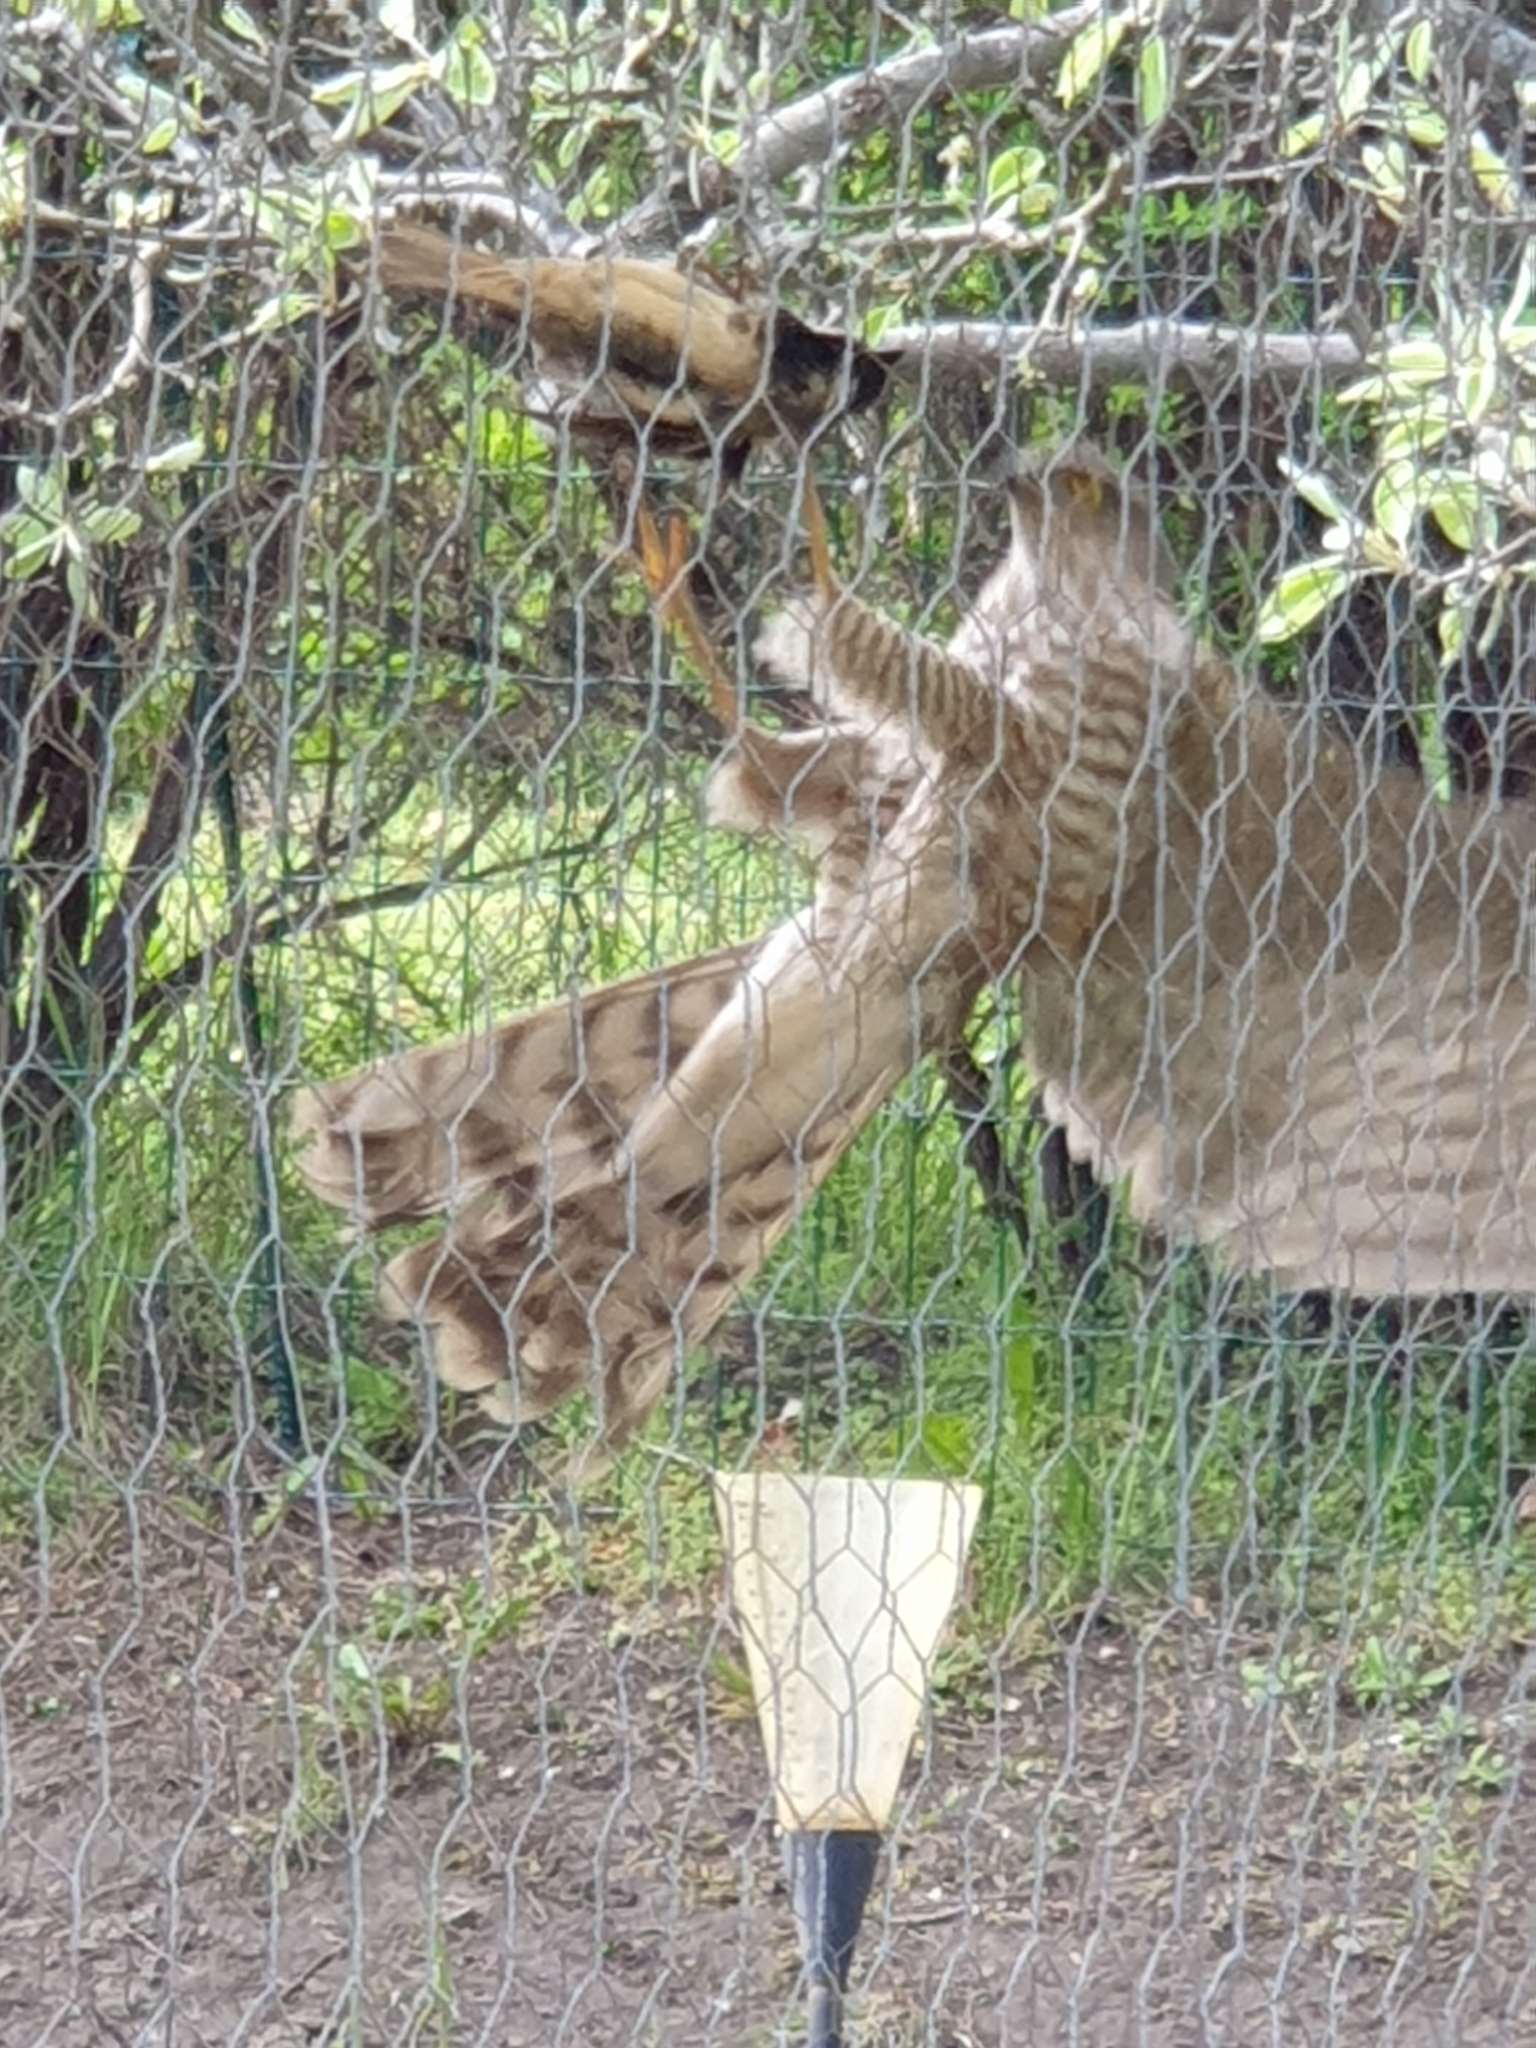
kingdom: Animalia
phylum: Chordata
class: Aves
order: Accipitriformes
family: Accipitridae
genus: Accipiter
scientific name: Accipiter nisus
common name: Eurasian sparrowhawk
